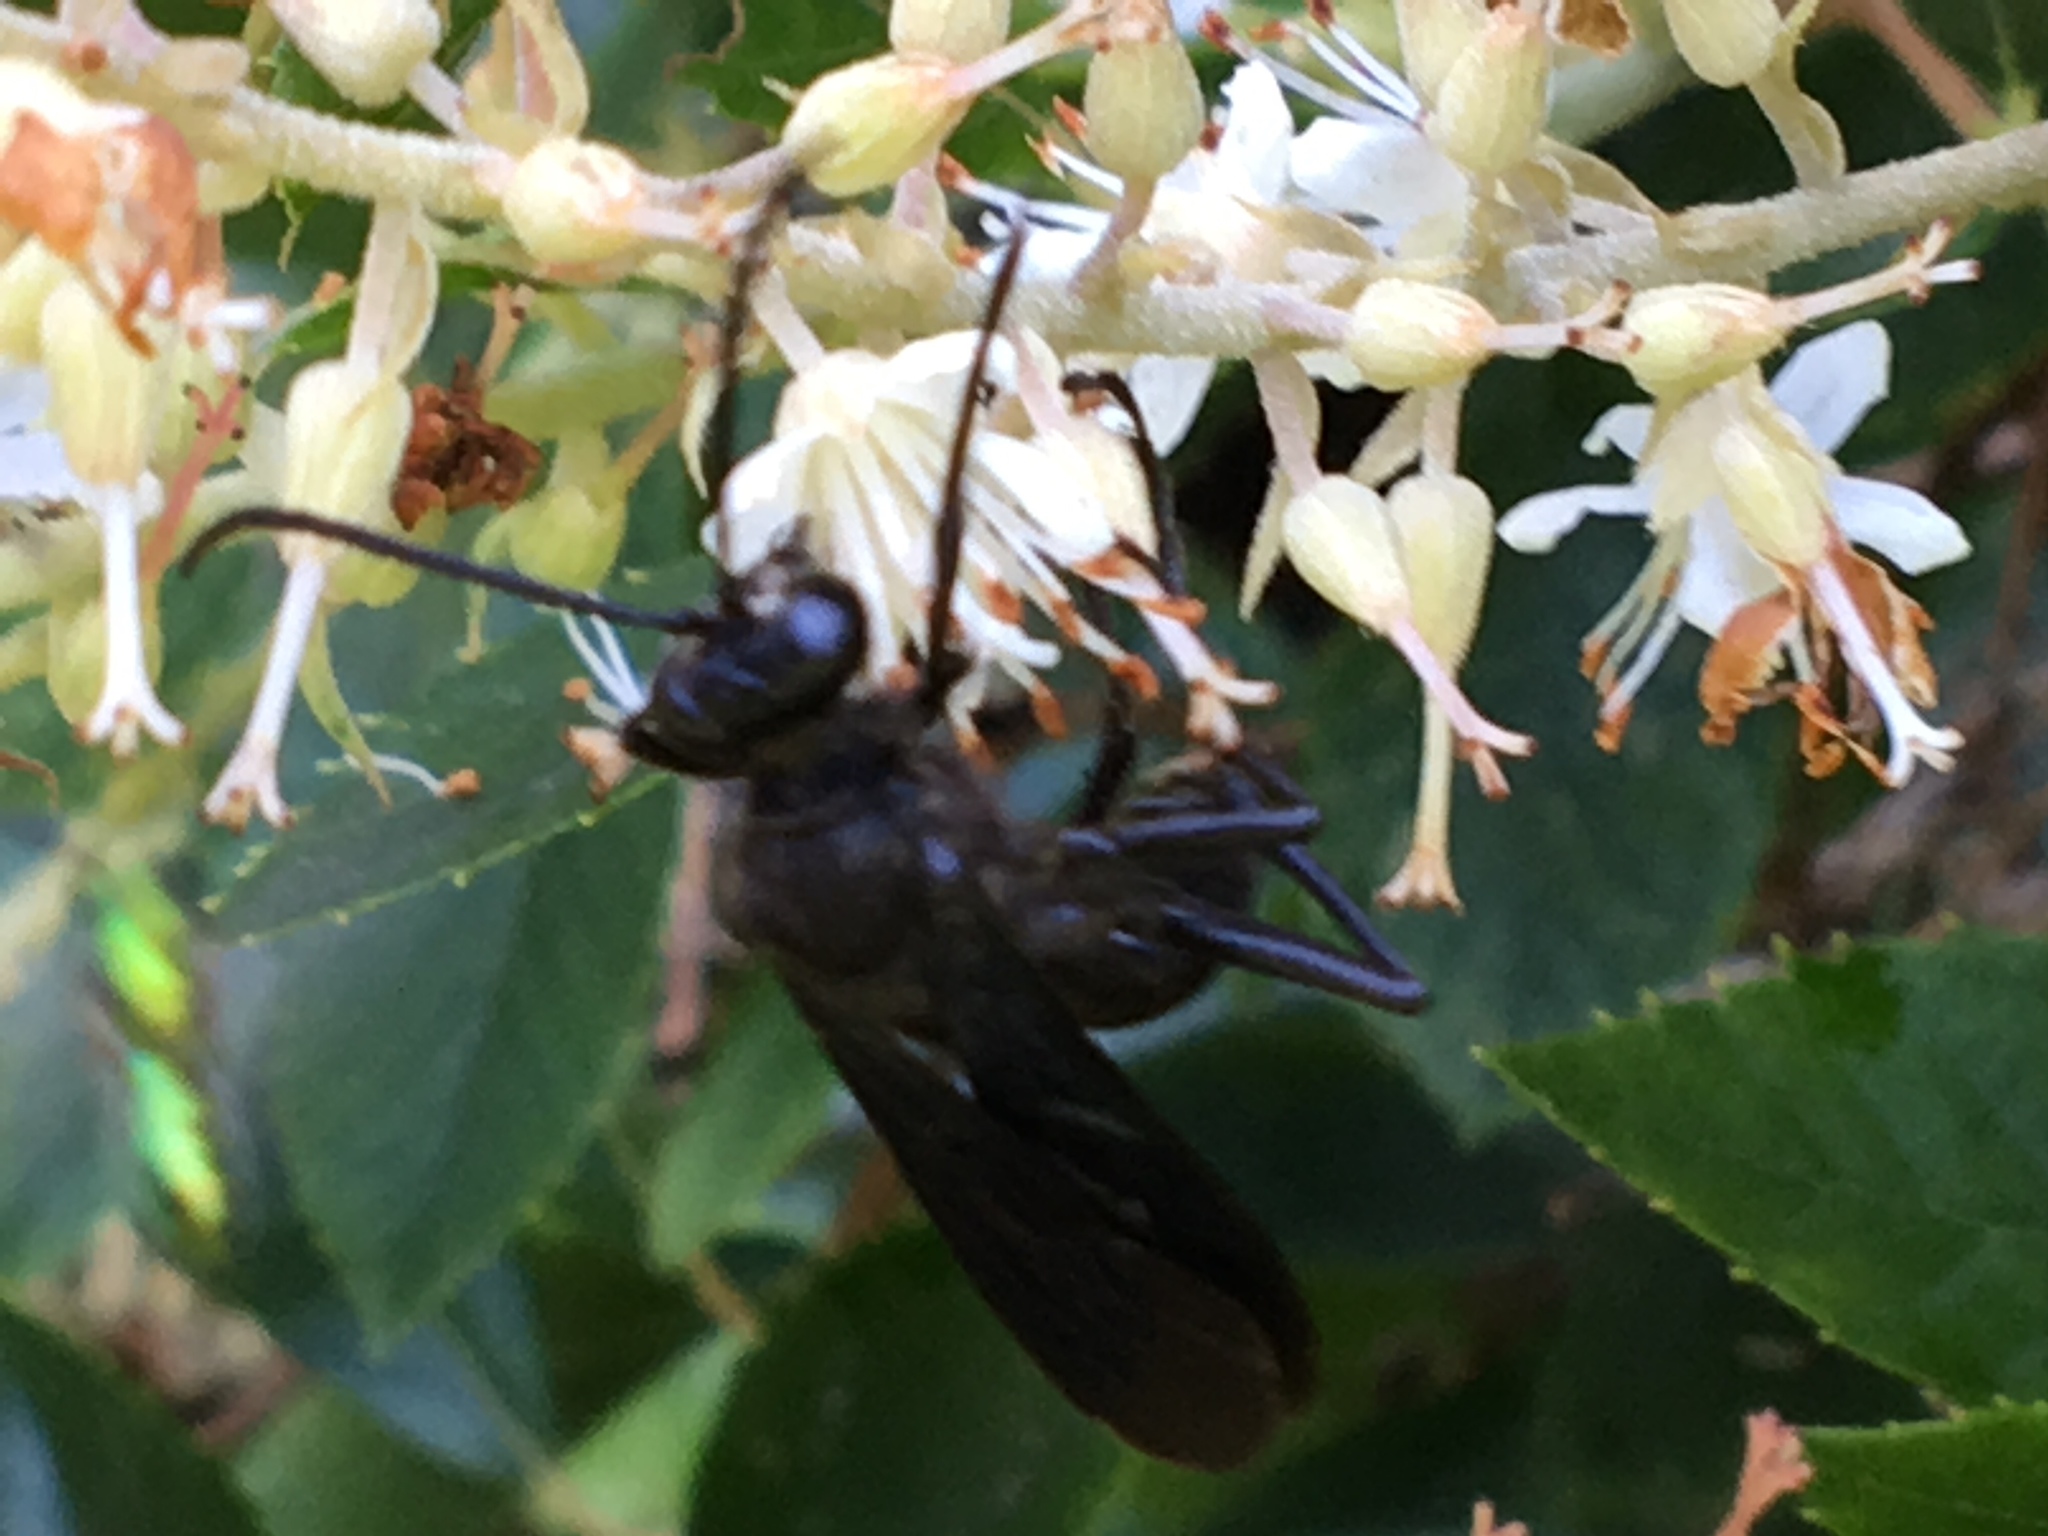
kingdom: Animalia
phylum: Arthropoda
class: Insecta
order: Hymenoptera
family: Sphecidae
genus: Sphex
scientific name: Sphex pensylvanicus
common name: Great black digger wasp
